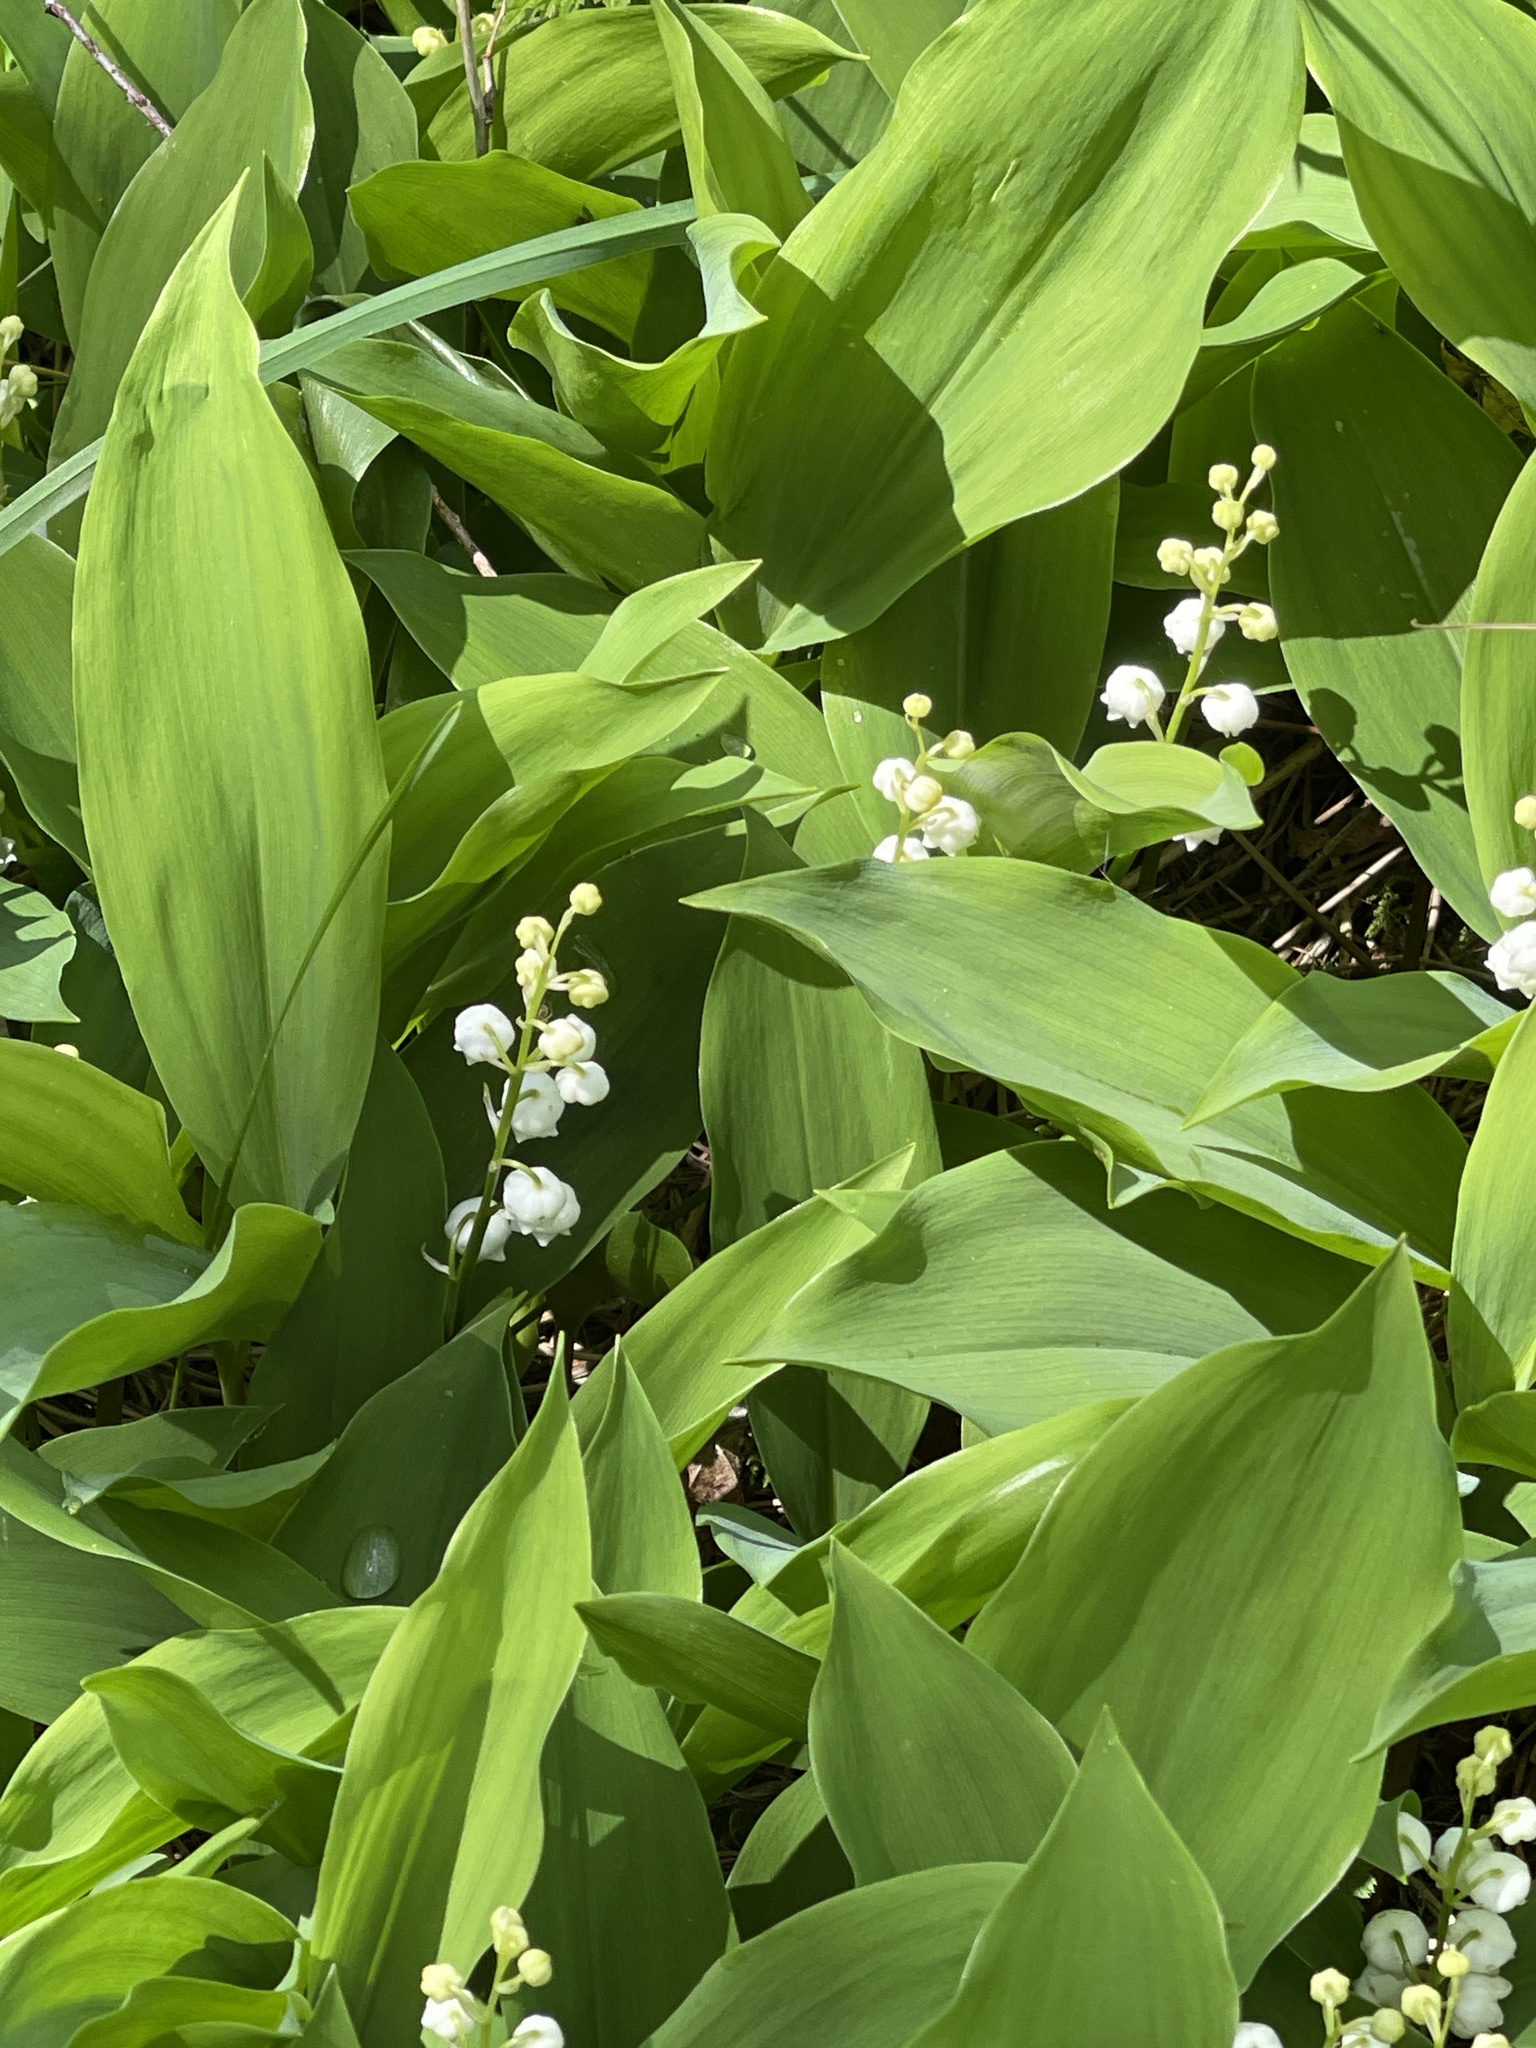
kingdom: Plantae
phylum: Tracheophyta
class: Liliopsida
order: Asparagales
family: Asparagaceae
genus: Convallaria
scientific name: Convallaria majalis
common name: Lily-of-the-valley
